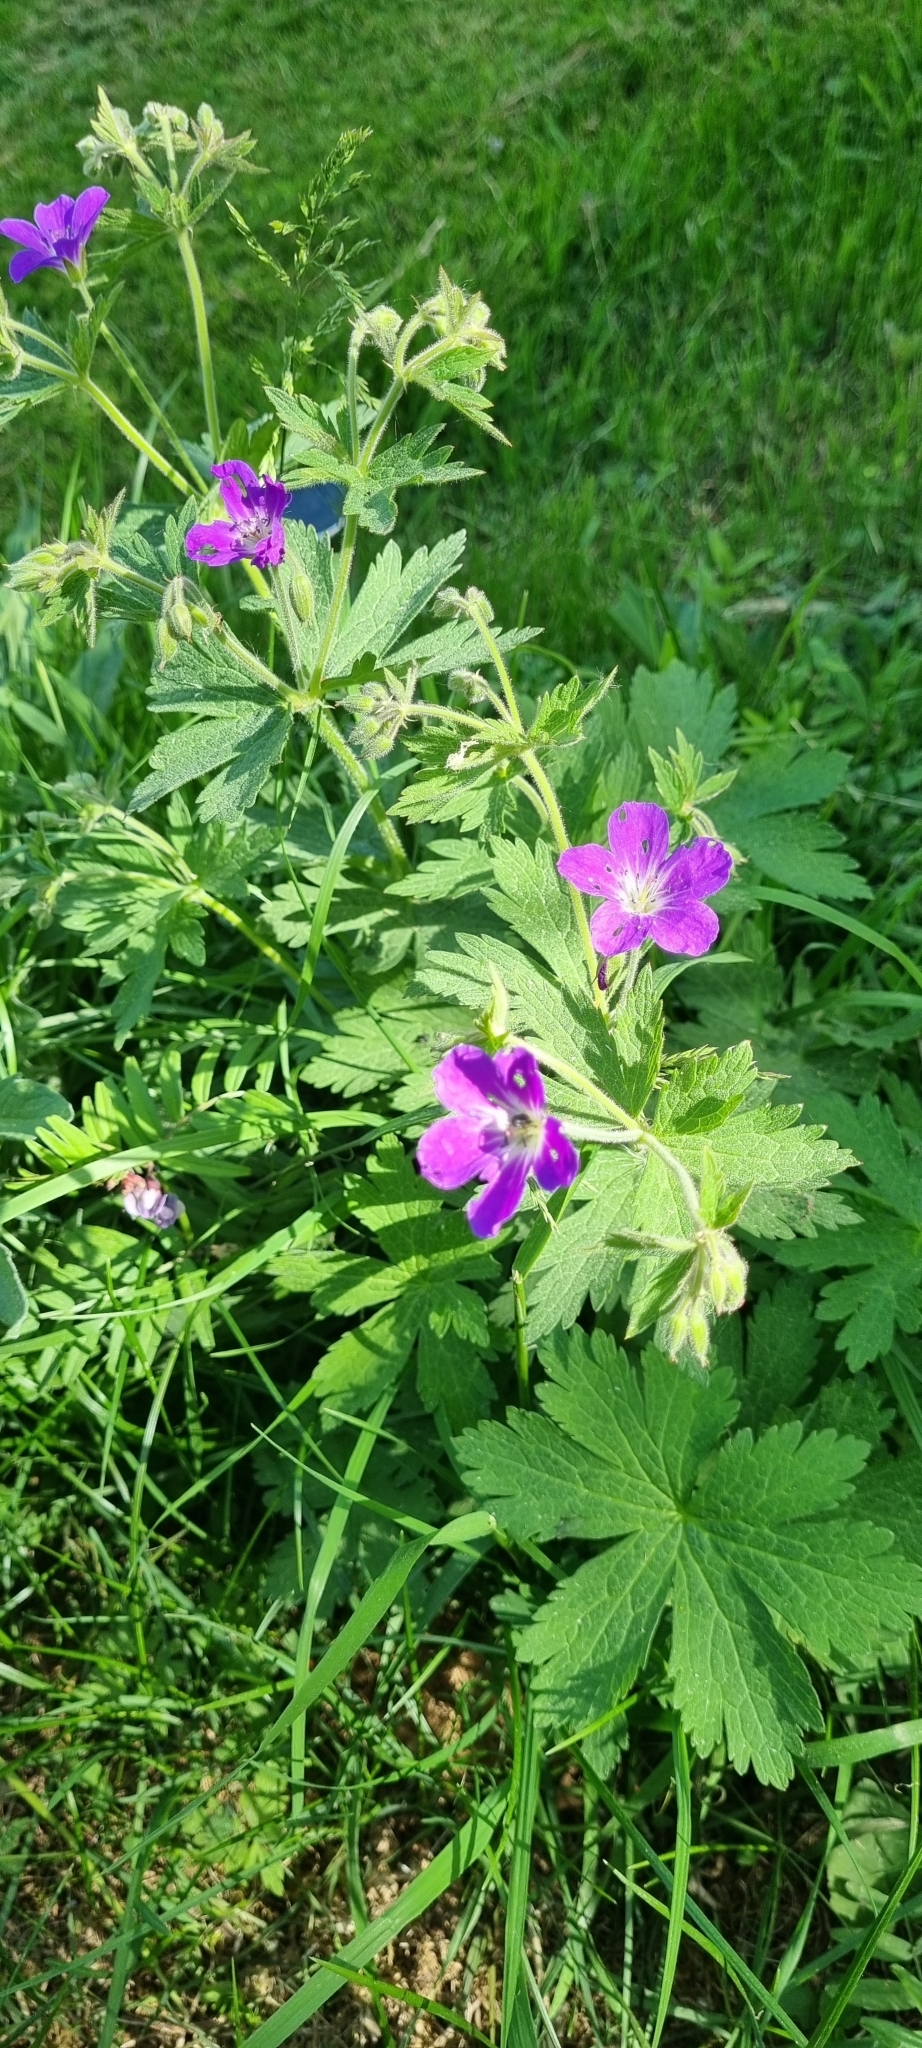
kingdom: Plantae
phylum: Tracheophyta
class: Magnoliopsida
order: Geraniales
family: Geraniaceae
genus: Geranium
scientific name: Geranium sylvaticum
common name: Wood crane's-bill
